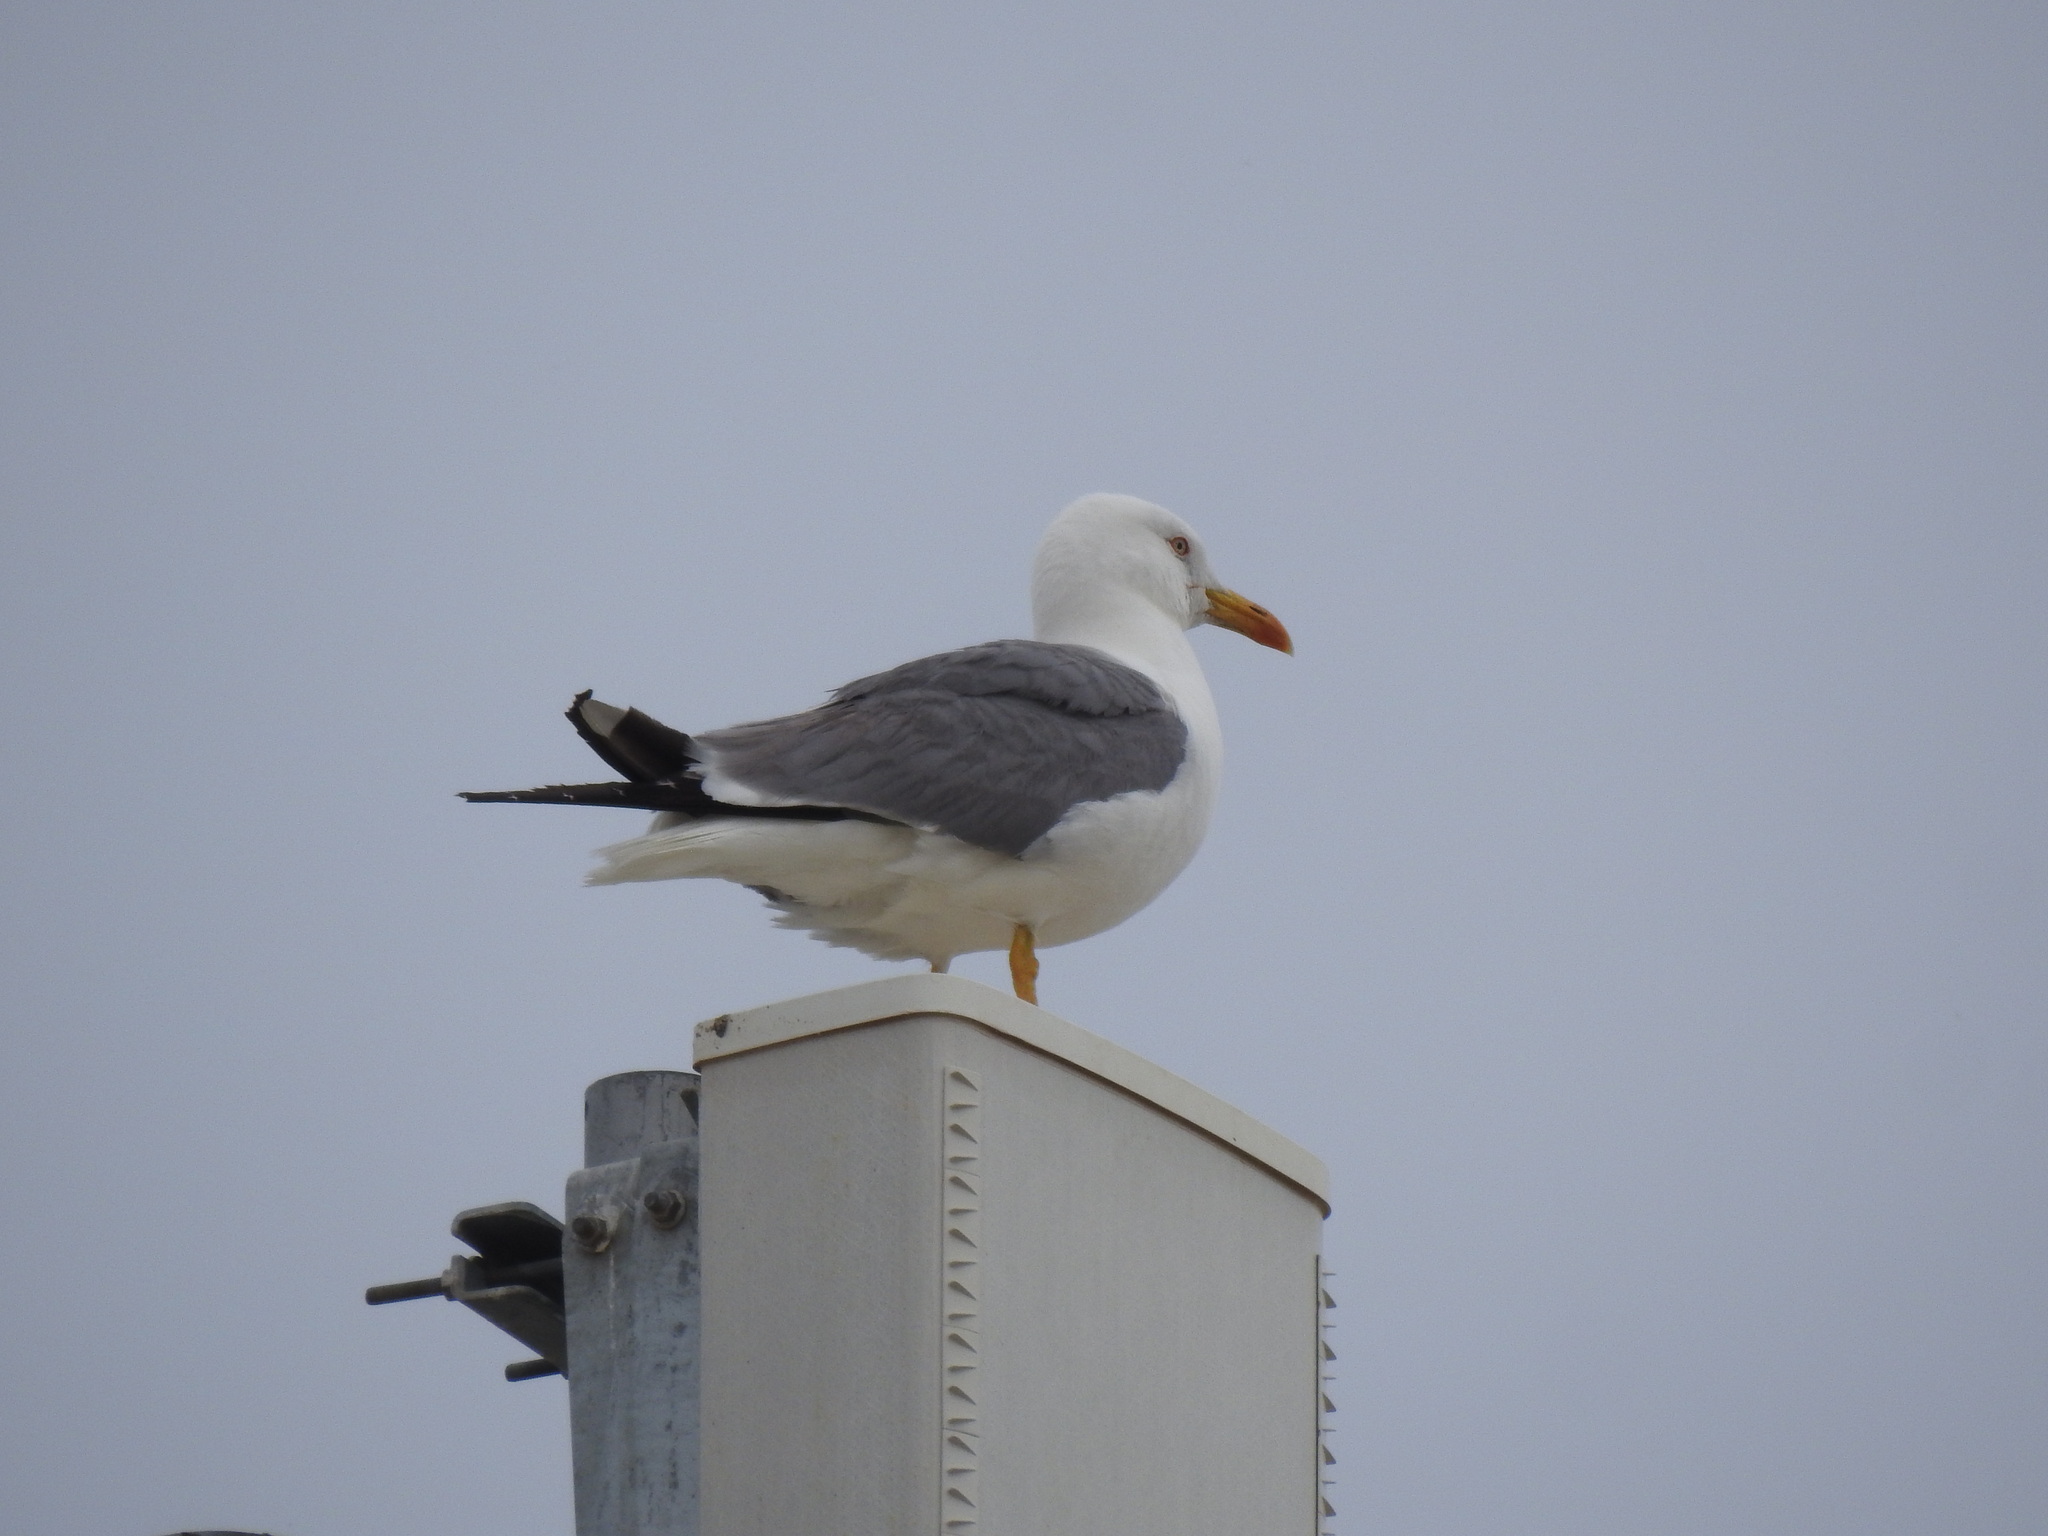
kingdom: Animalia
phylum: Chordata
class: Aves
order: Charadriiformes
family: Laridae
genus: Larus
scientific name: Larus michahellis
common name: Yellow-legged gull
